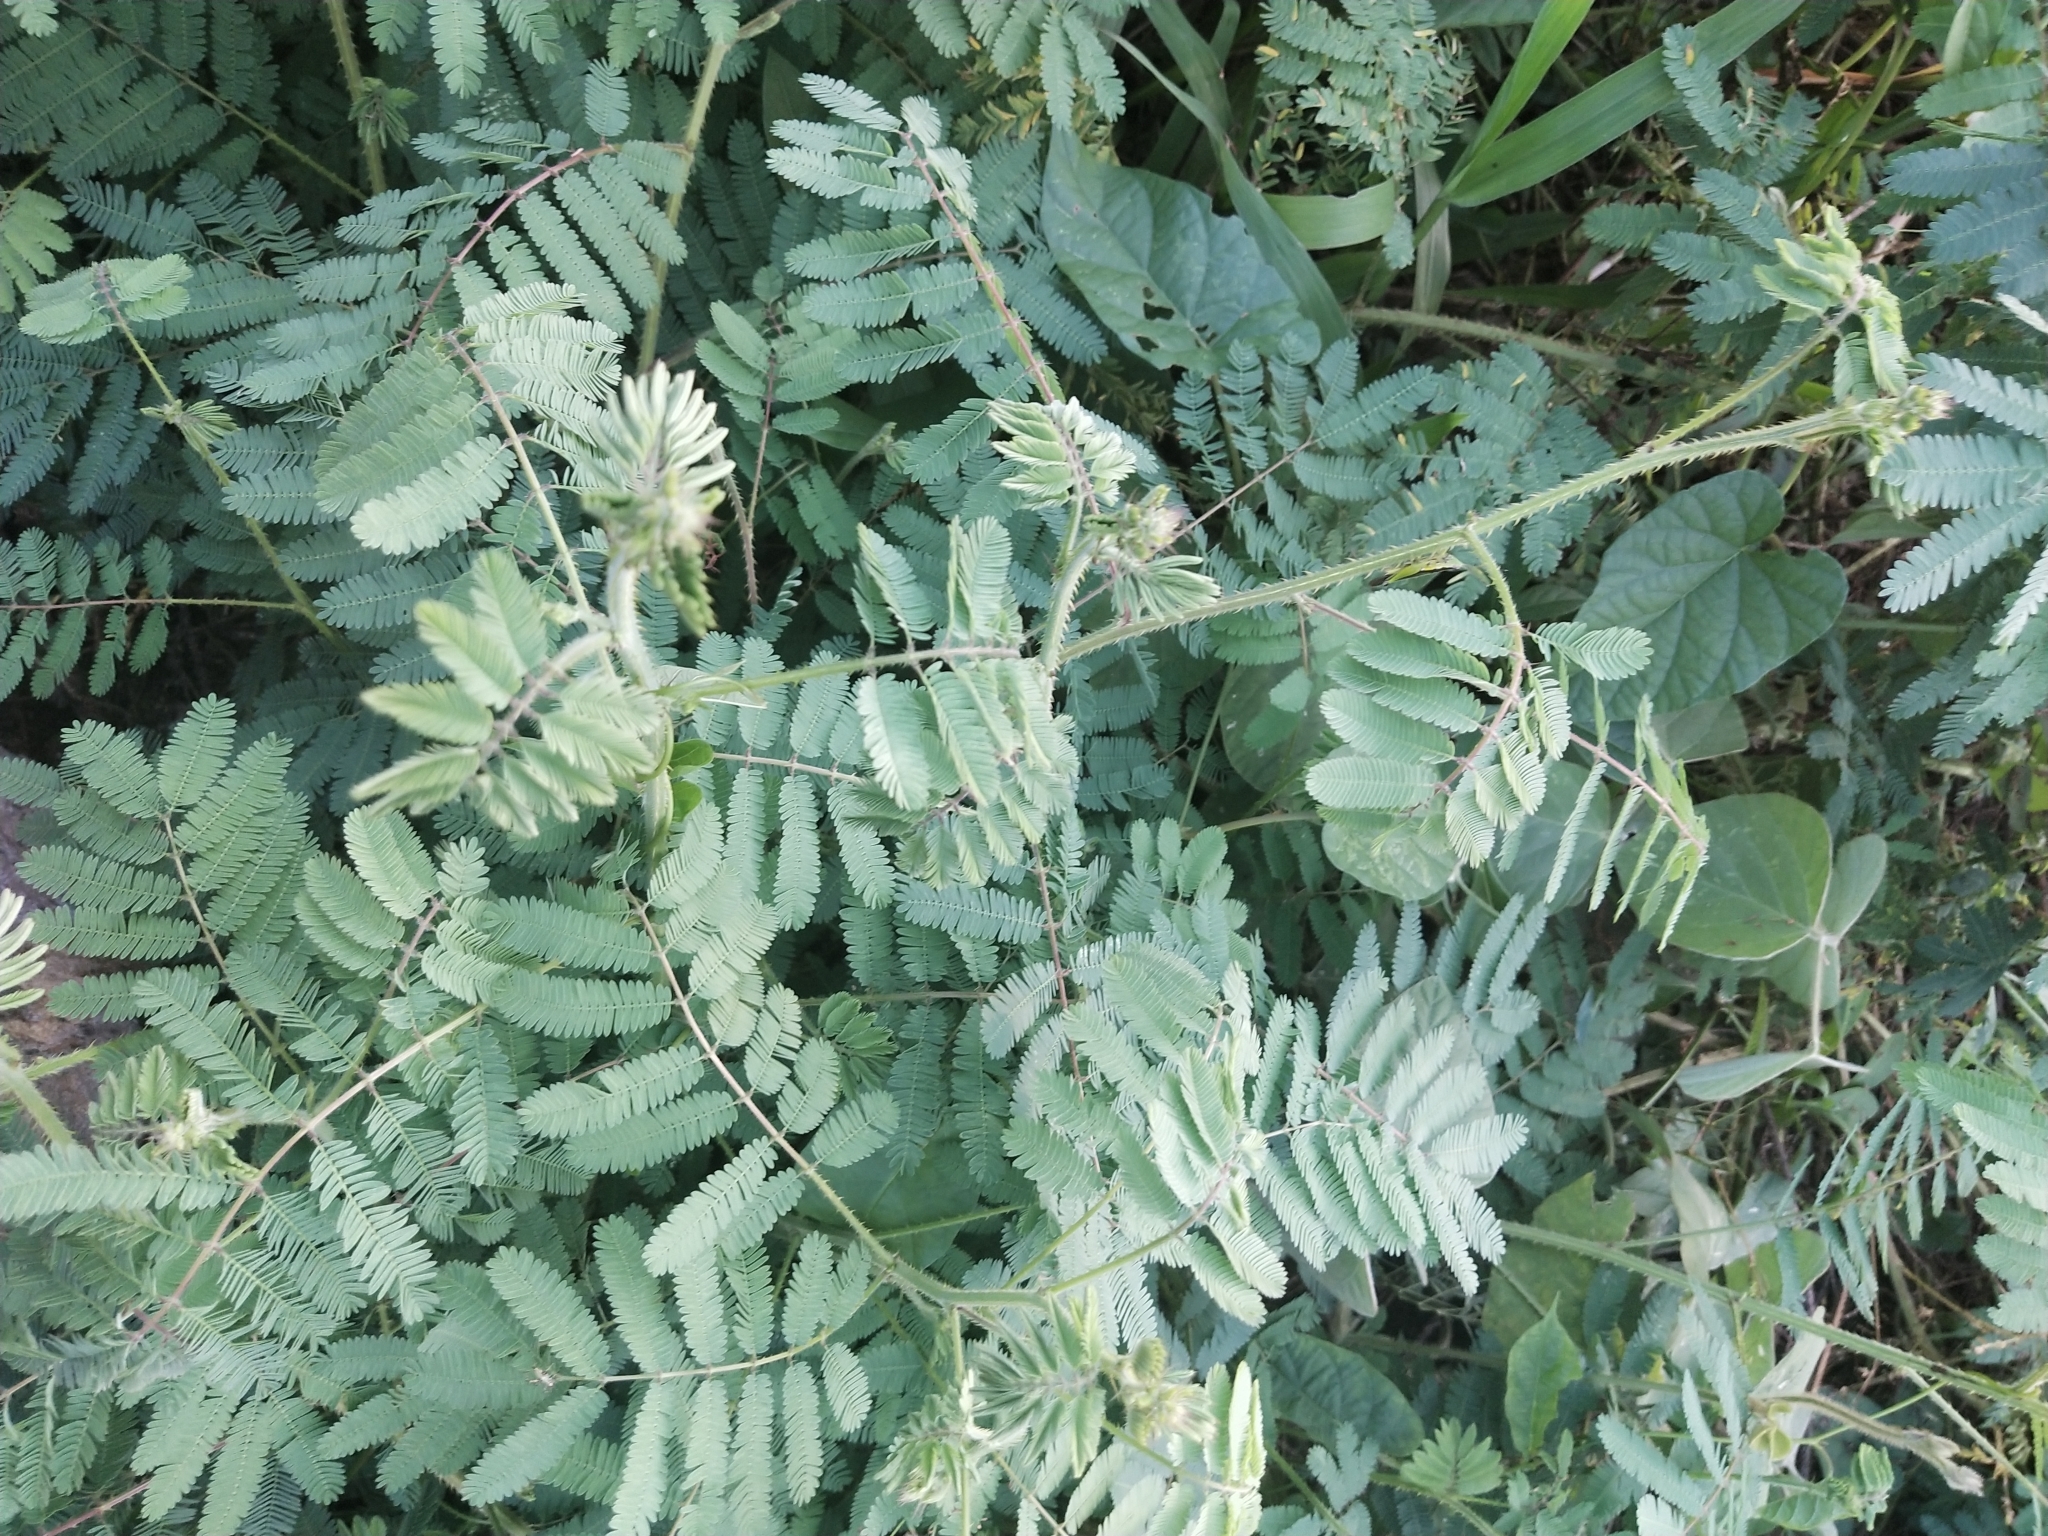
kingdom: Plantae
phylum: Tracheophyta
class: Magnoliopsida
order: Fabales
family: Fabaceae
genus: Mimosa
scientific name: Mimosa diplotricha
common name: Giant sensitive-plant
